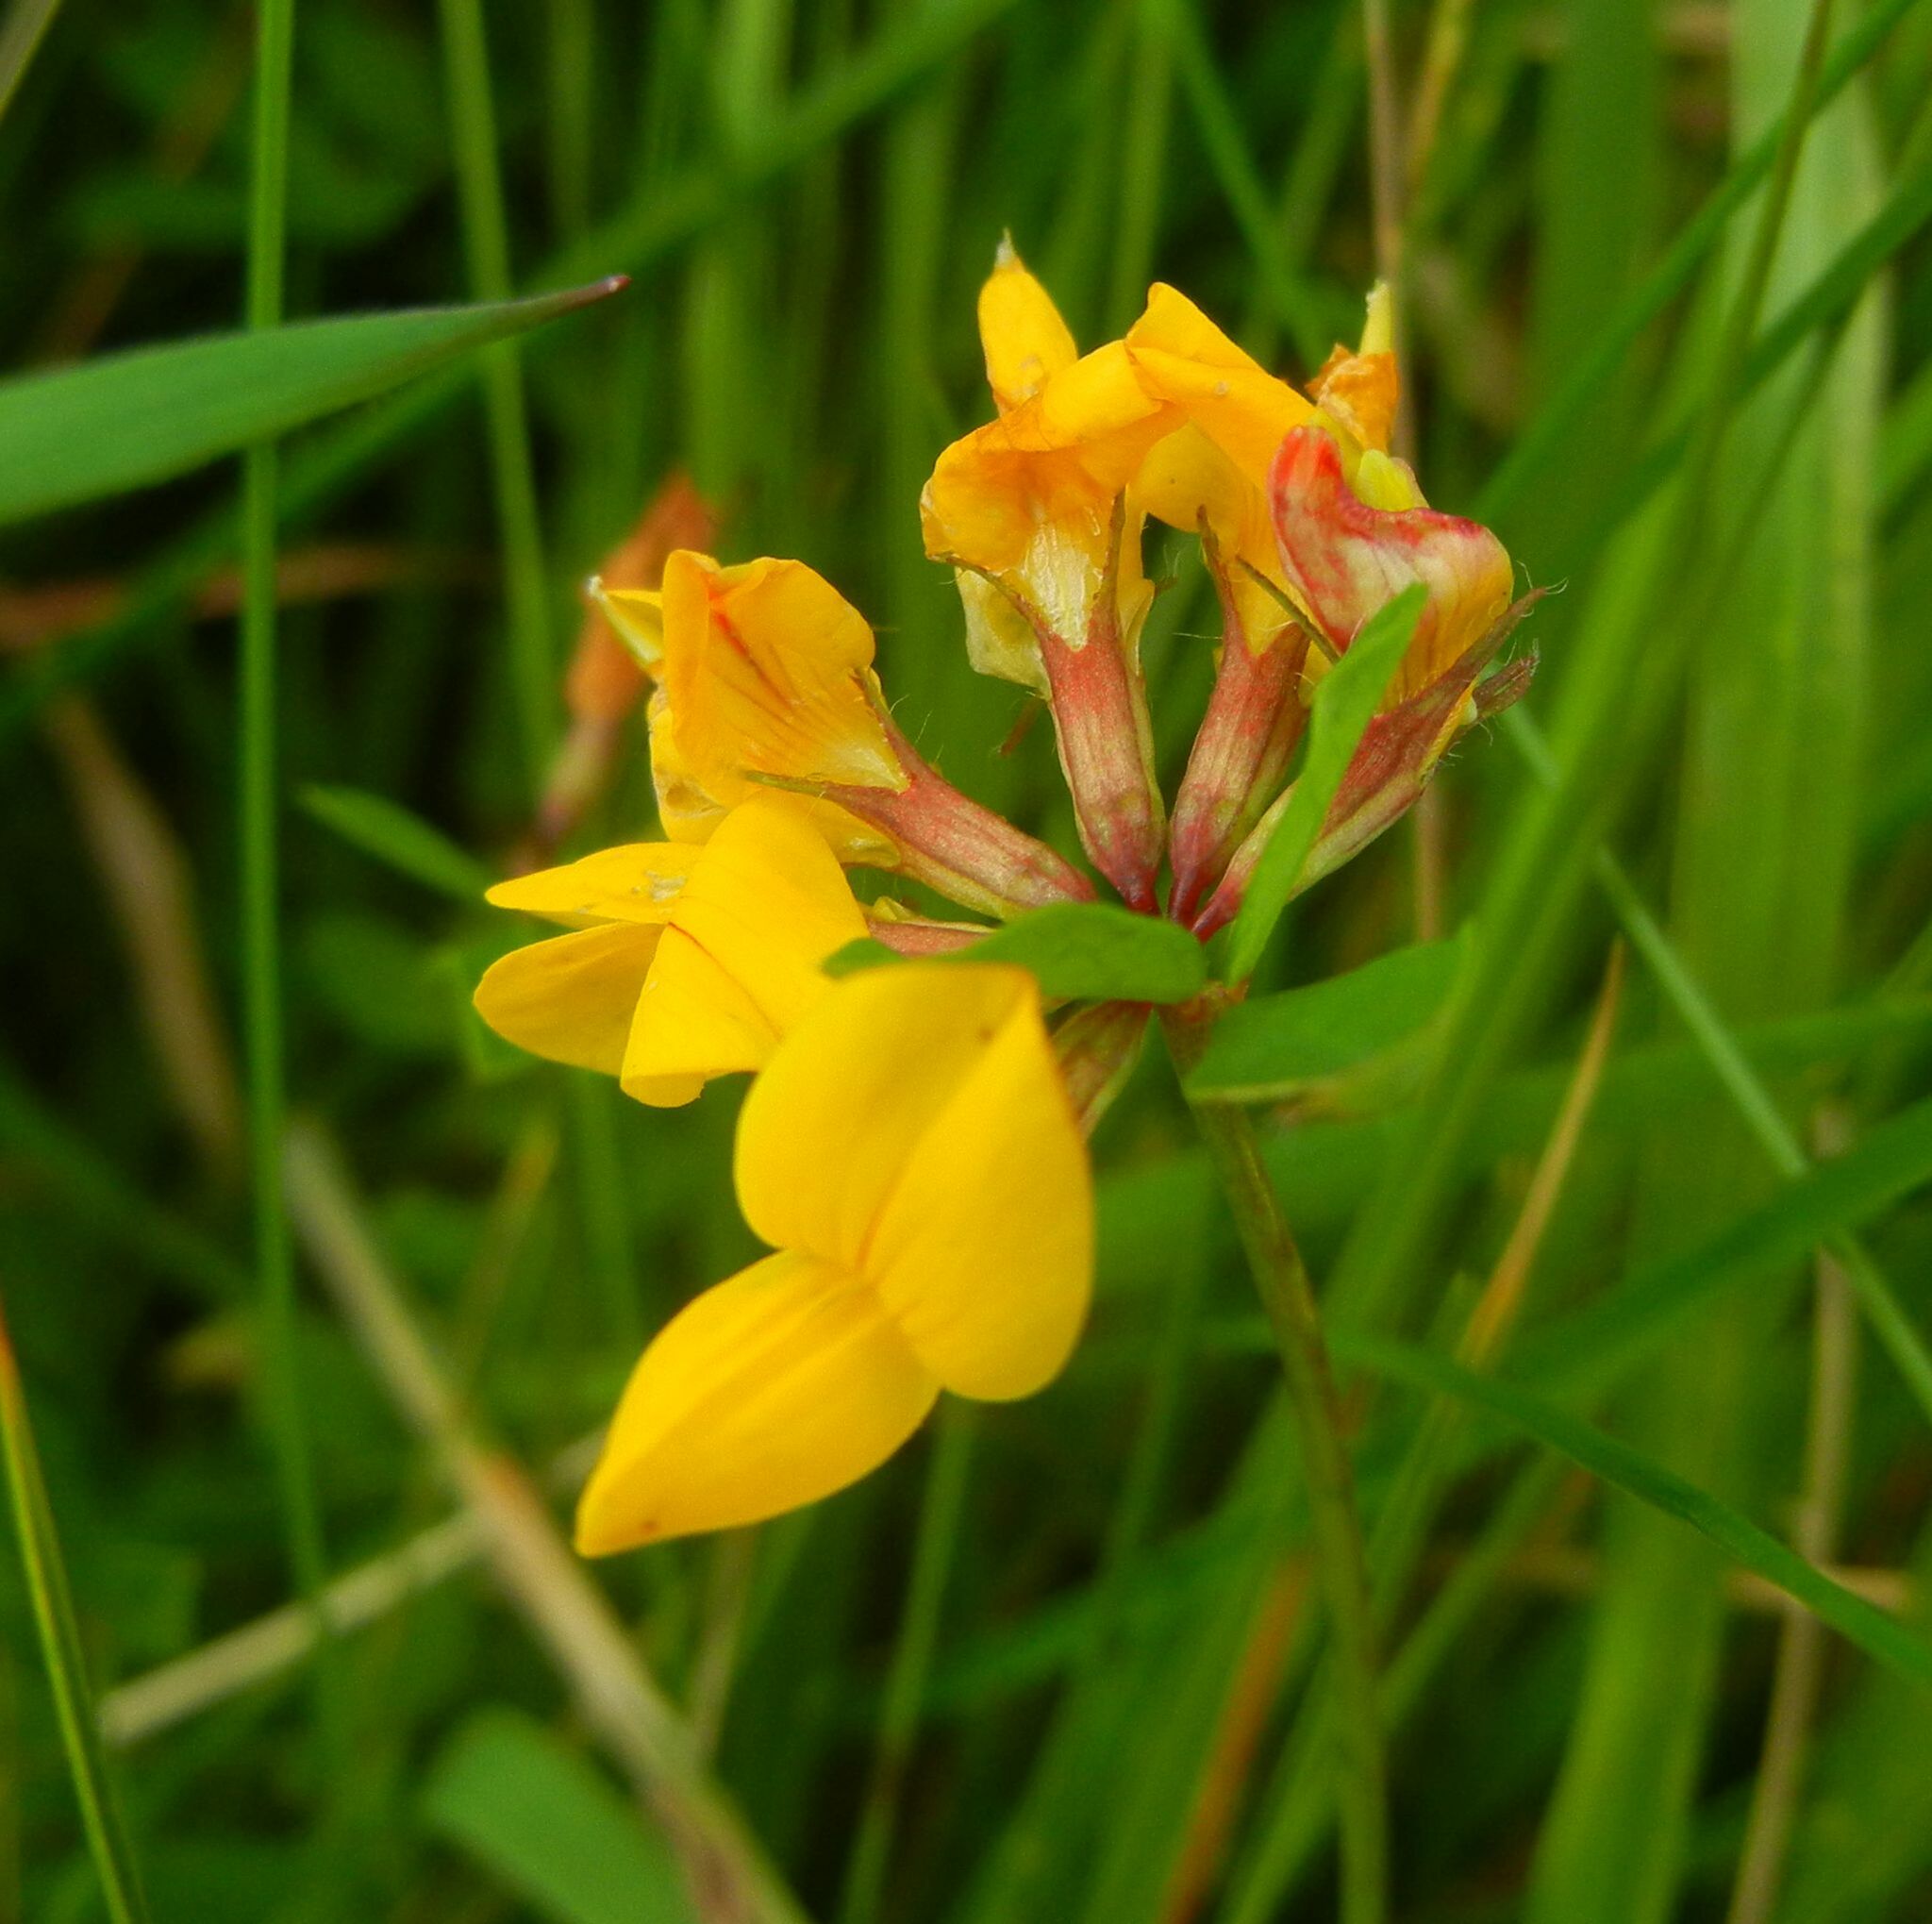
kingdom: Plantae
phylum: Tracheophyta
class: Magnoliopsida
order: Fabales
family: Fabaceae
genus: Lotus
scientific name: Lotus corniculatus
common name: Common bird's-foot-trefoil
